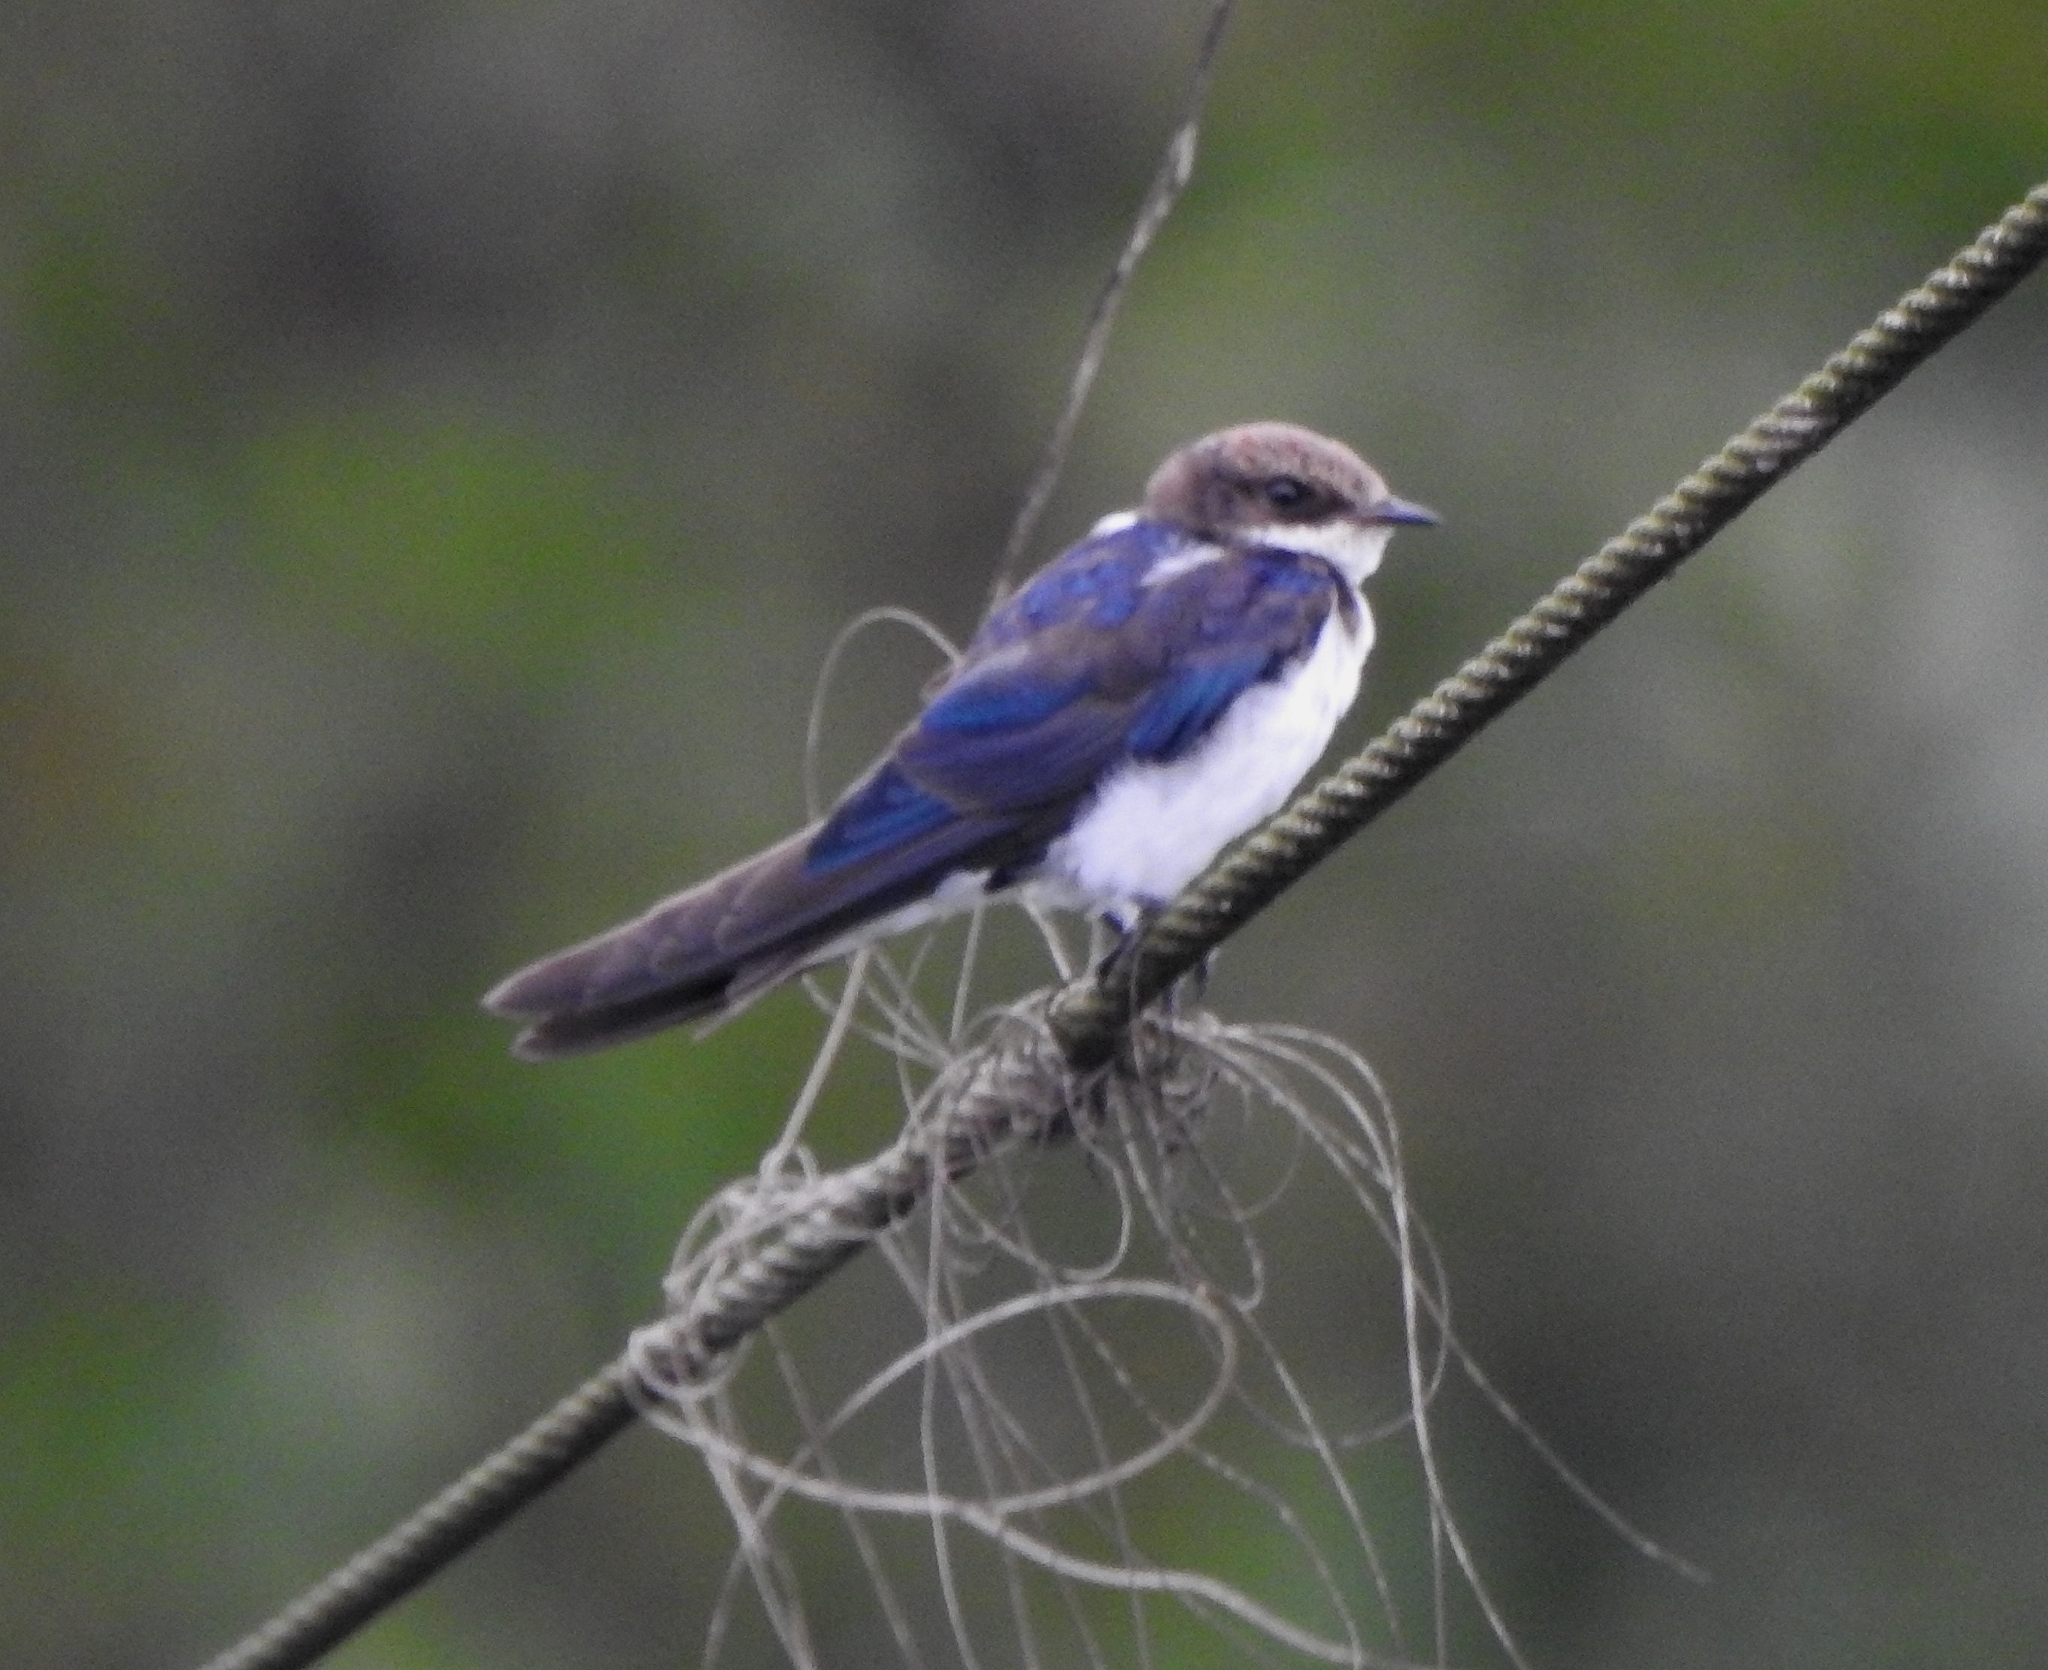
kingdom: Animalia
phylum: Chordata
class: Aves
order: Passeriformes
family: Hirundinidae
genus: Hirundo
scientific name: Hirundo smithii
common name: Wire-tailed swallow
